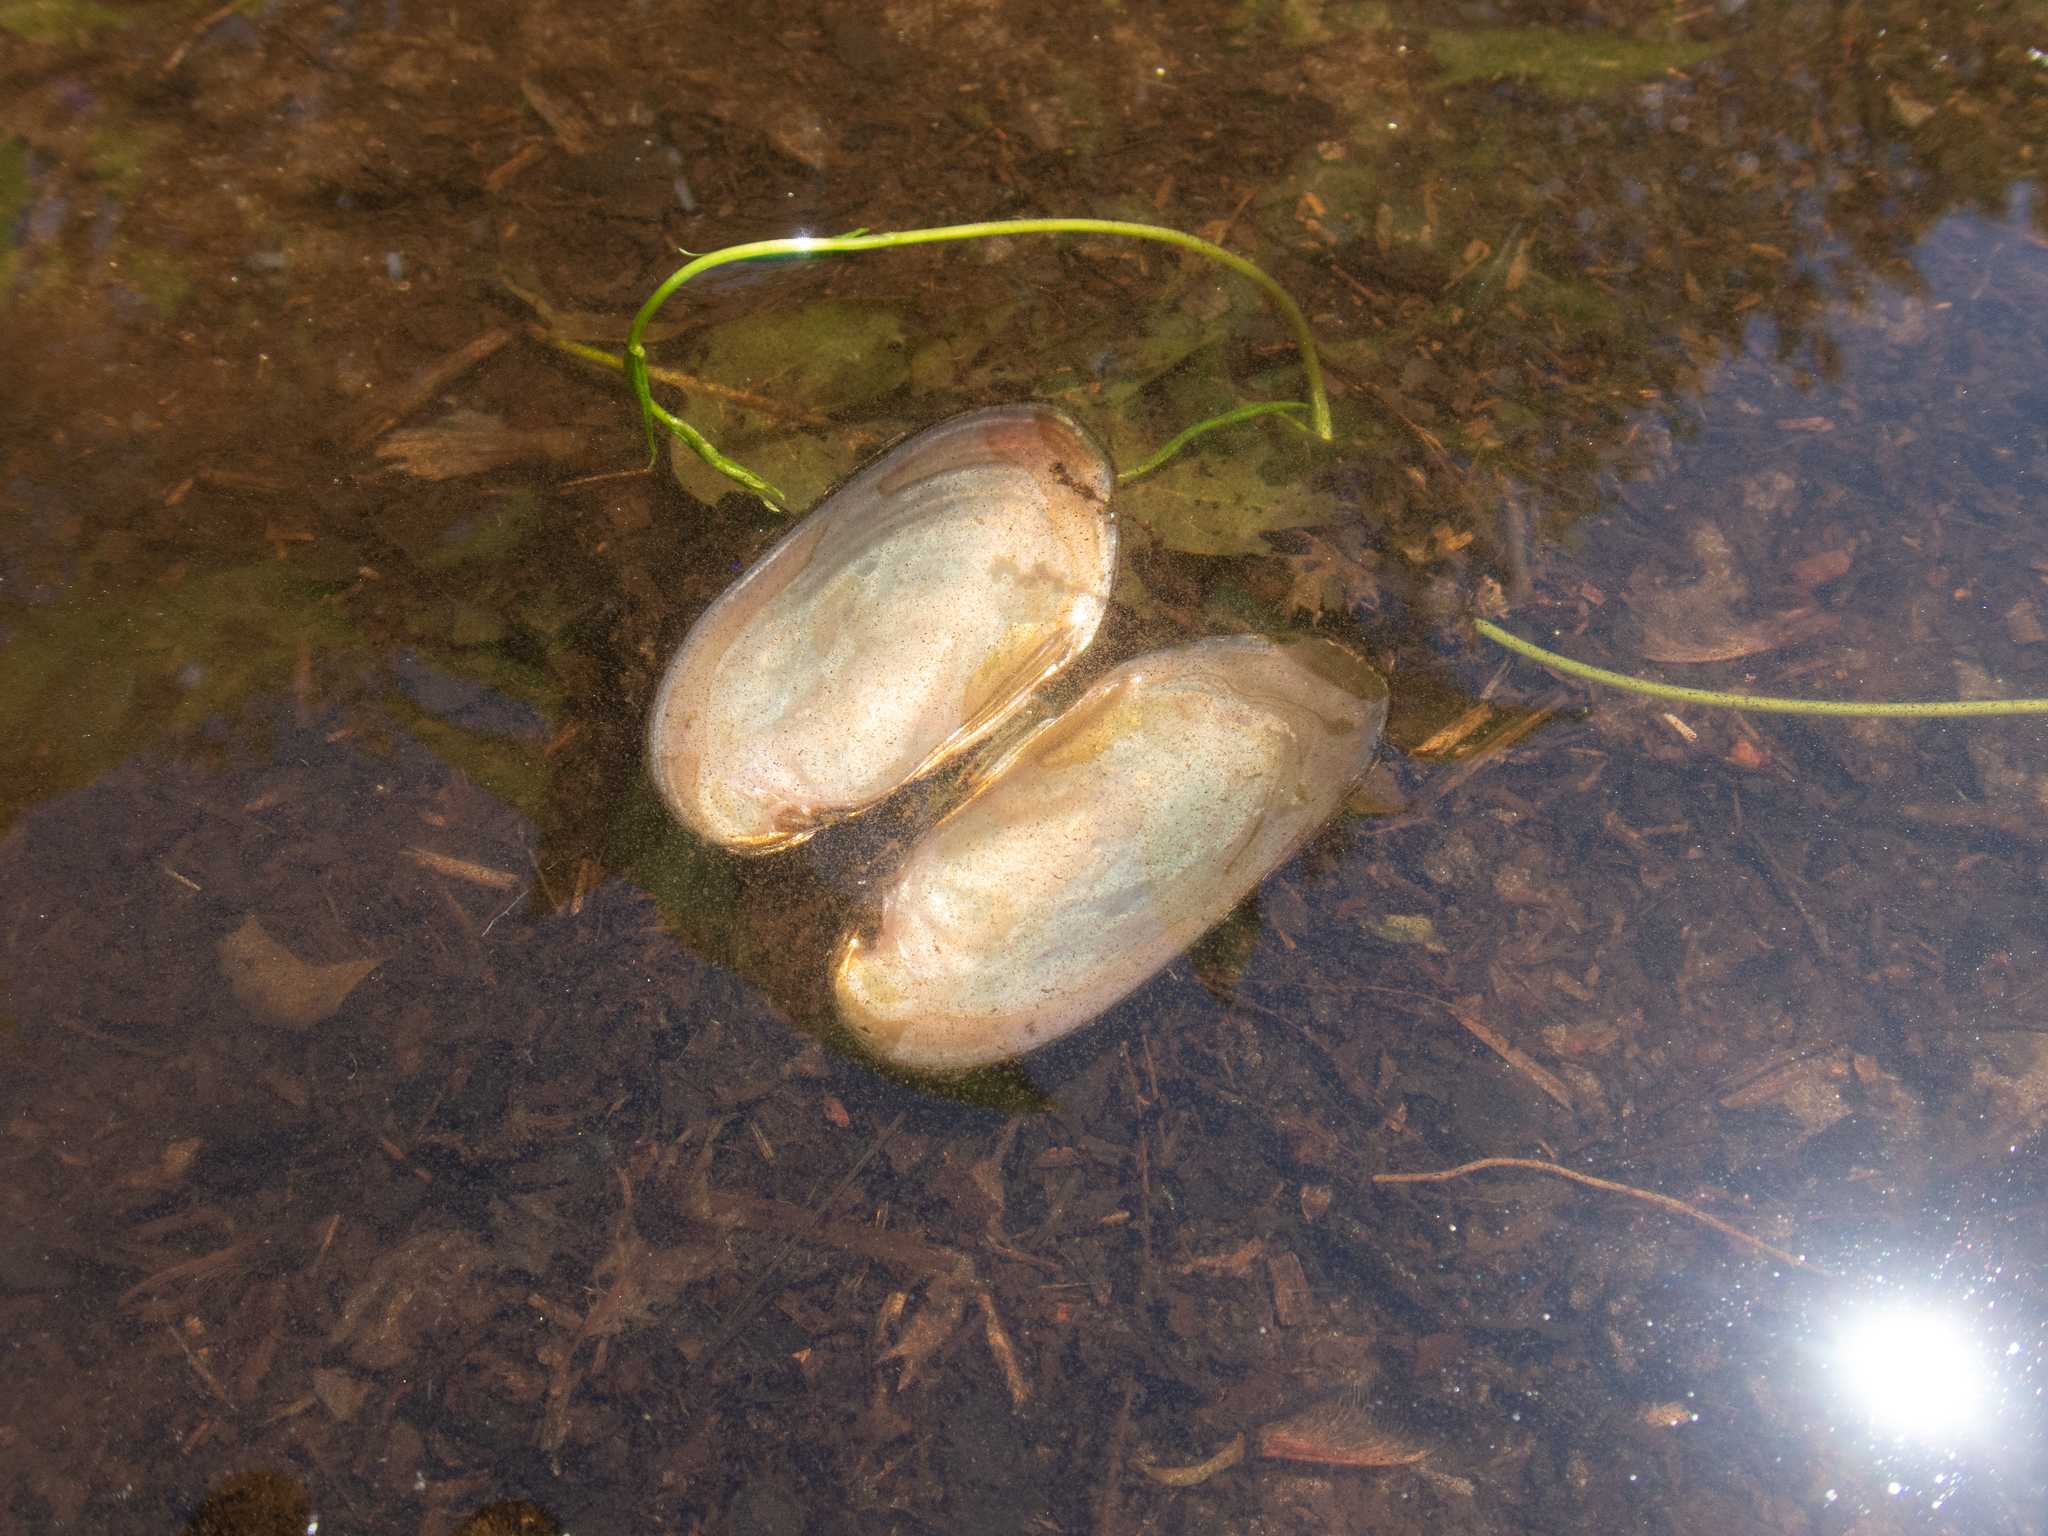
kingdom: Animalia
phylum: Mollusca
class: Bivalvia
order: Unionida
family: Unionidae
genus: Elliptio
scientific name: Elliptio complanata
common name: Eastern elliptio
